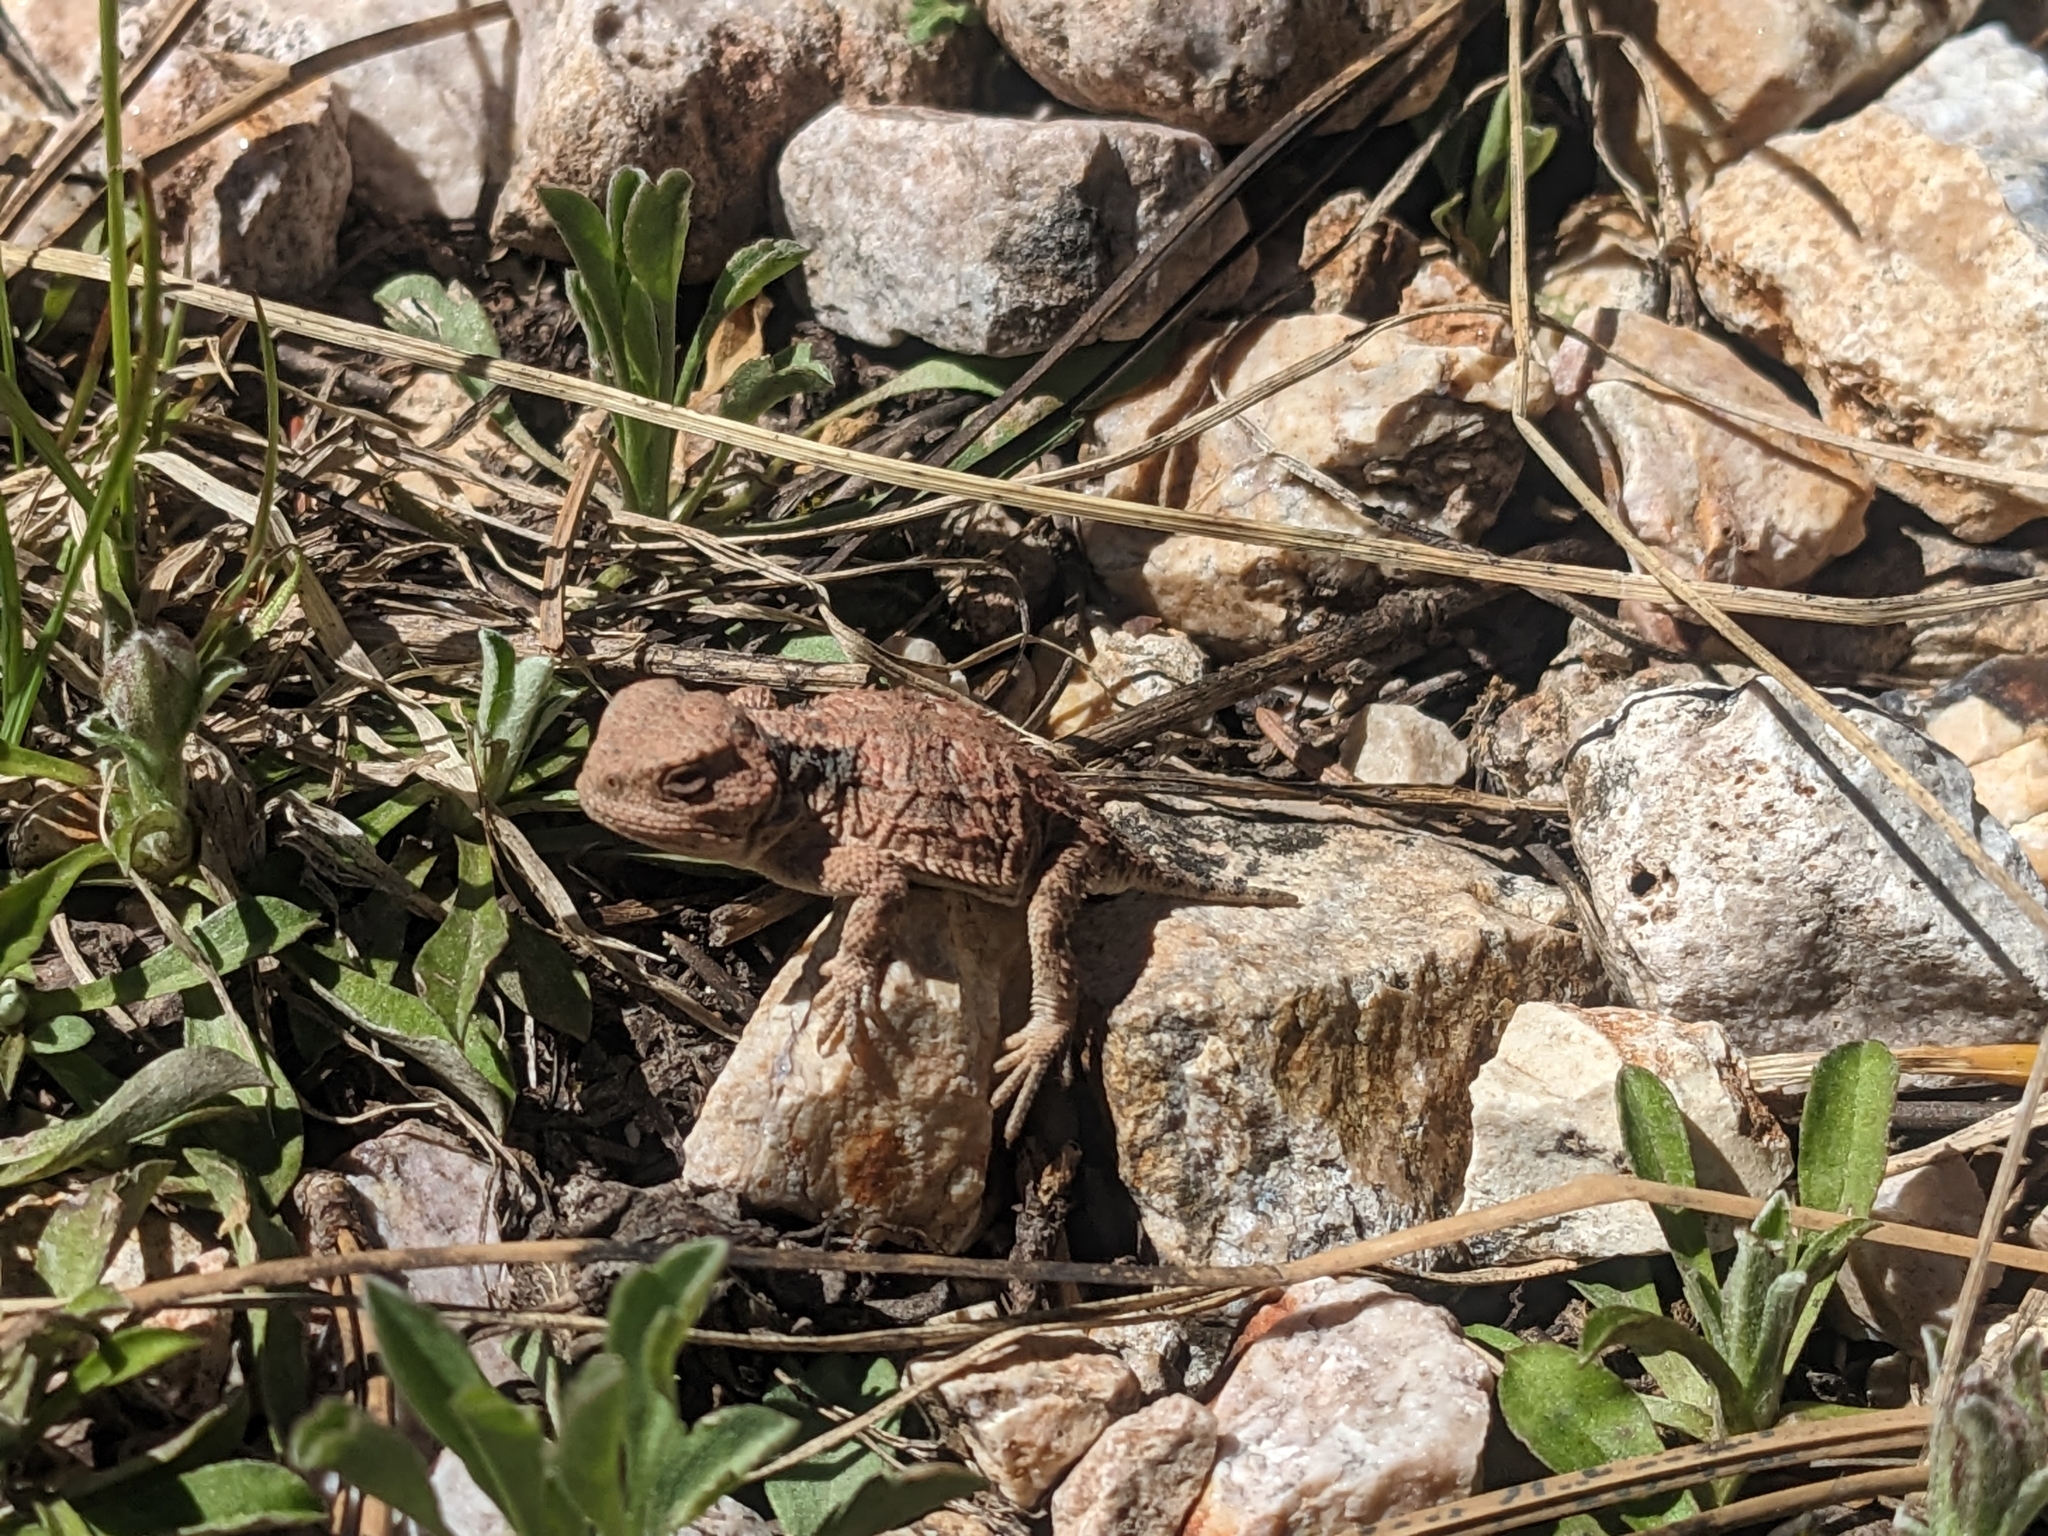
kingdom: Animalia
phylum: Chordata
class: Squamata
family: Phrynosomatidae
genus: Phrynosoma
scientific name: Phrynosoma hernandesi
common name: Greater short-horned lizard
